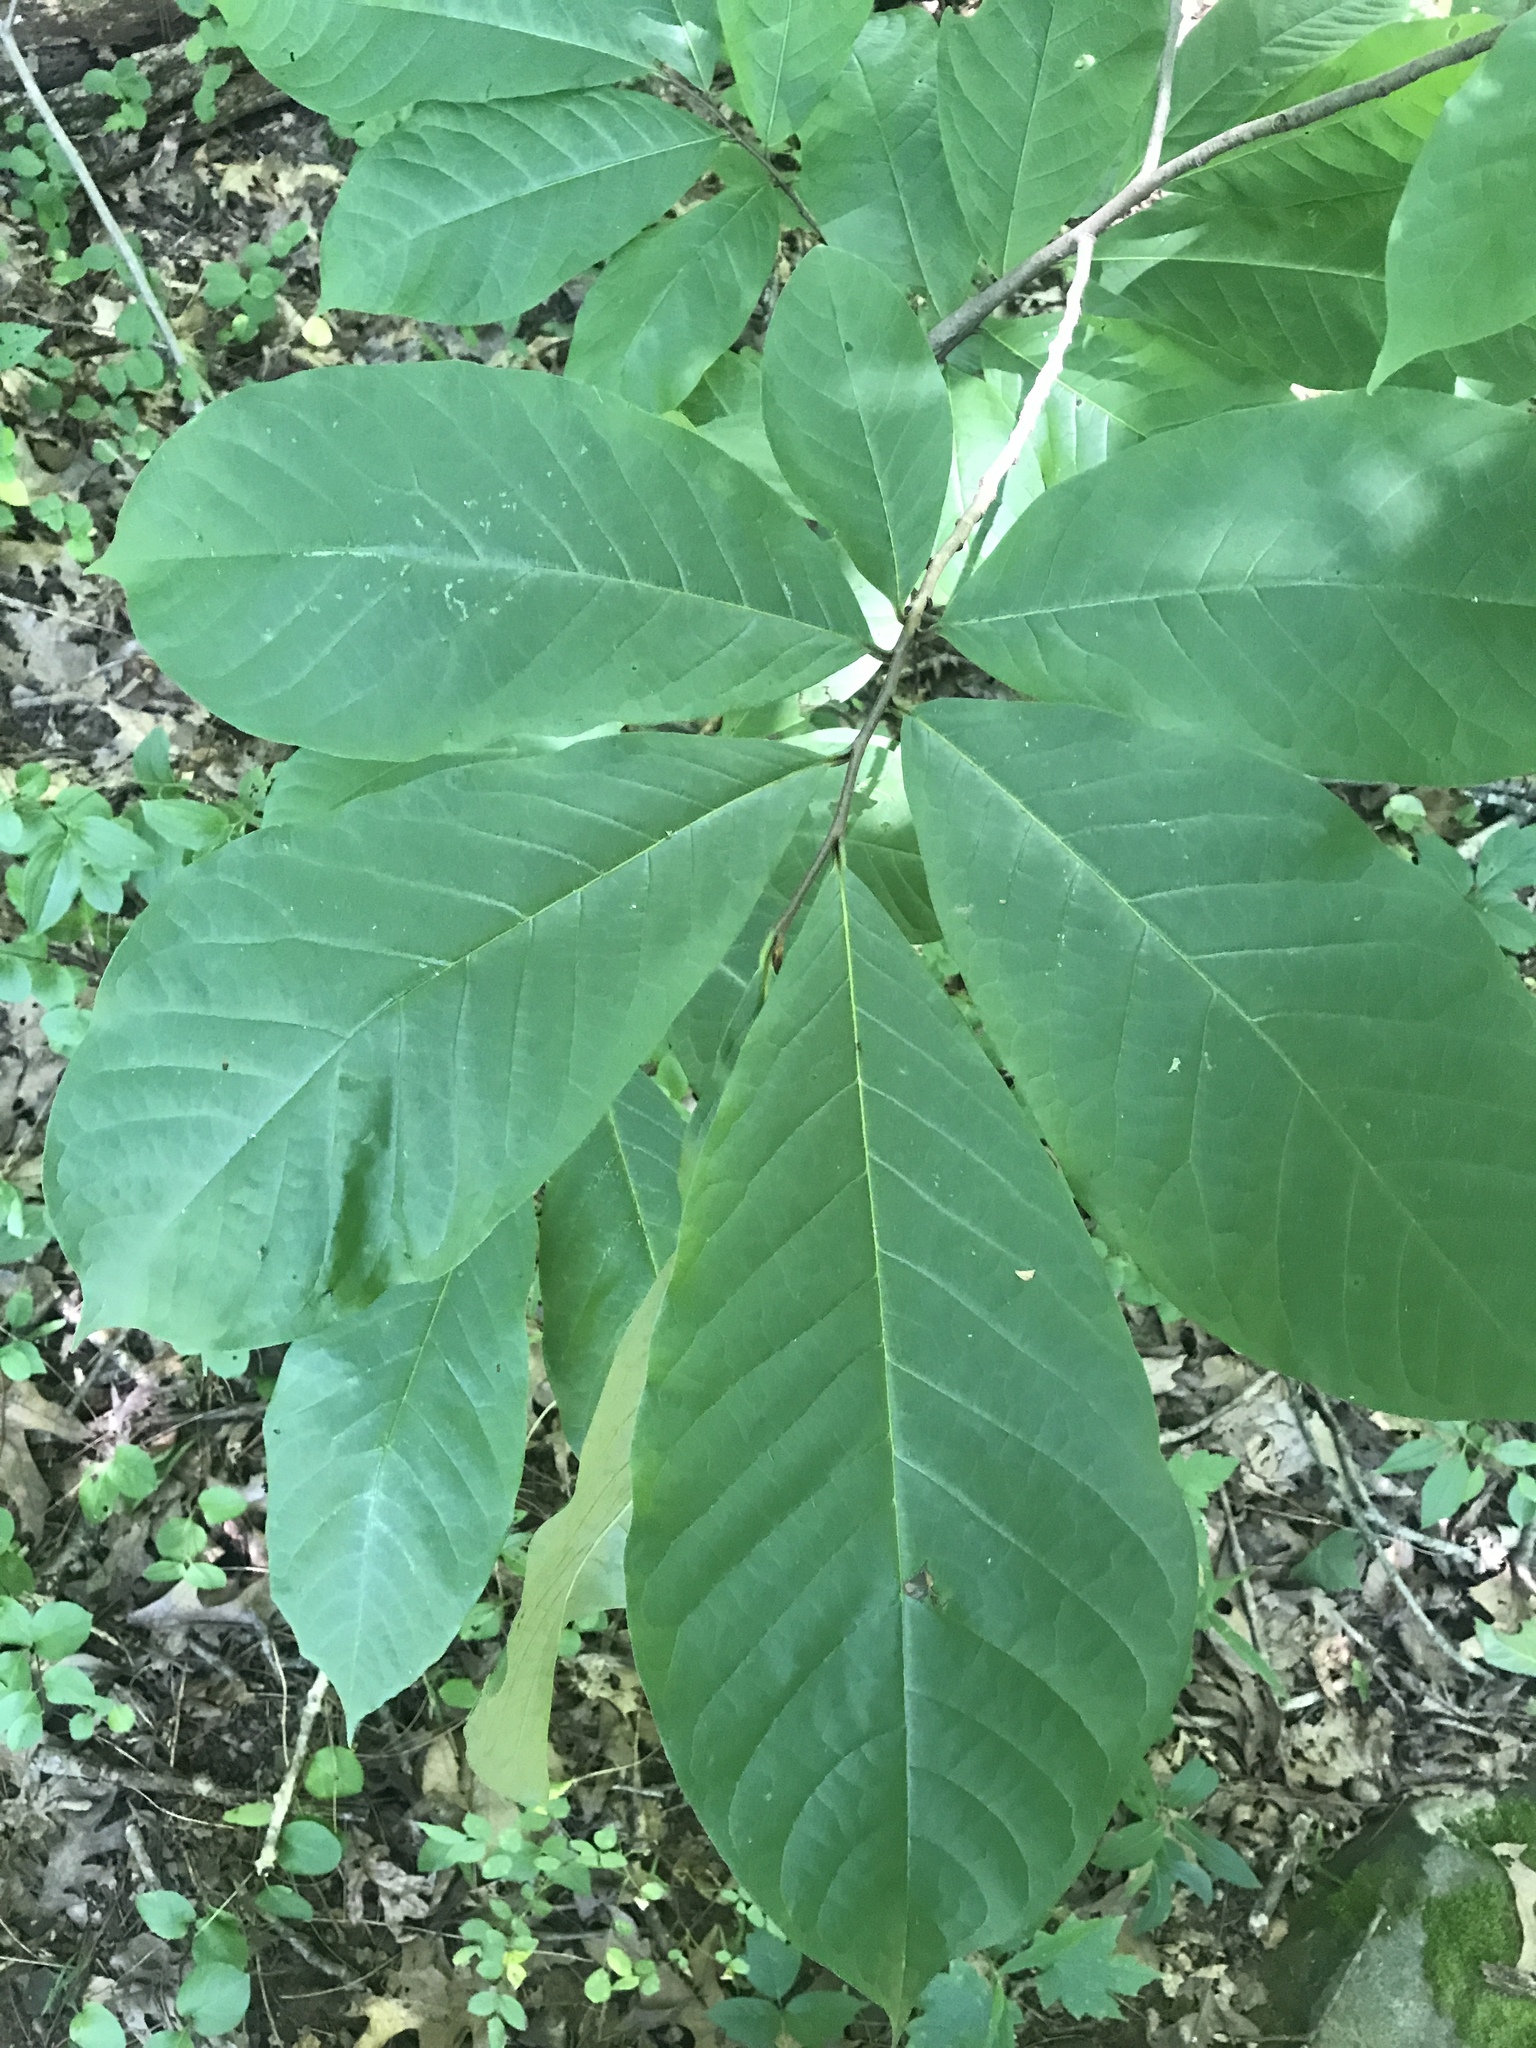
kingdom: Plantae
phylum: Tracheophyta
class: Magnoliopsida
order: Magnoliales
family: Annonaceae
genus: Asimina
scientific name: Asimina triloba
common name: Dog-banana
